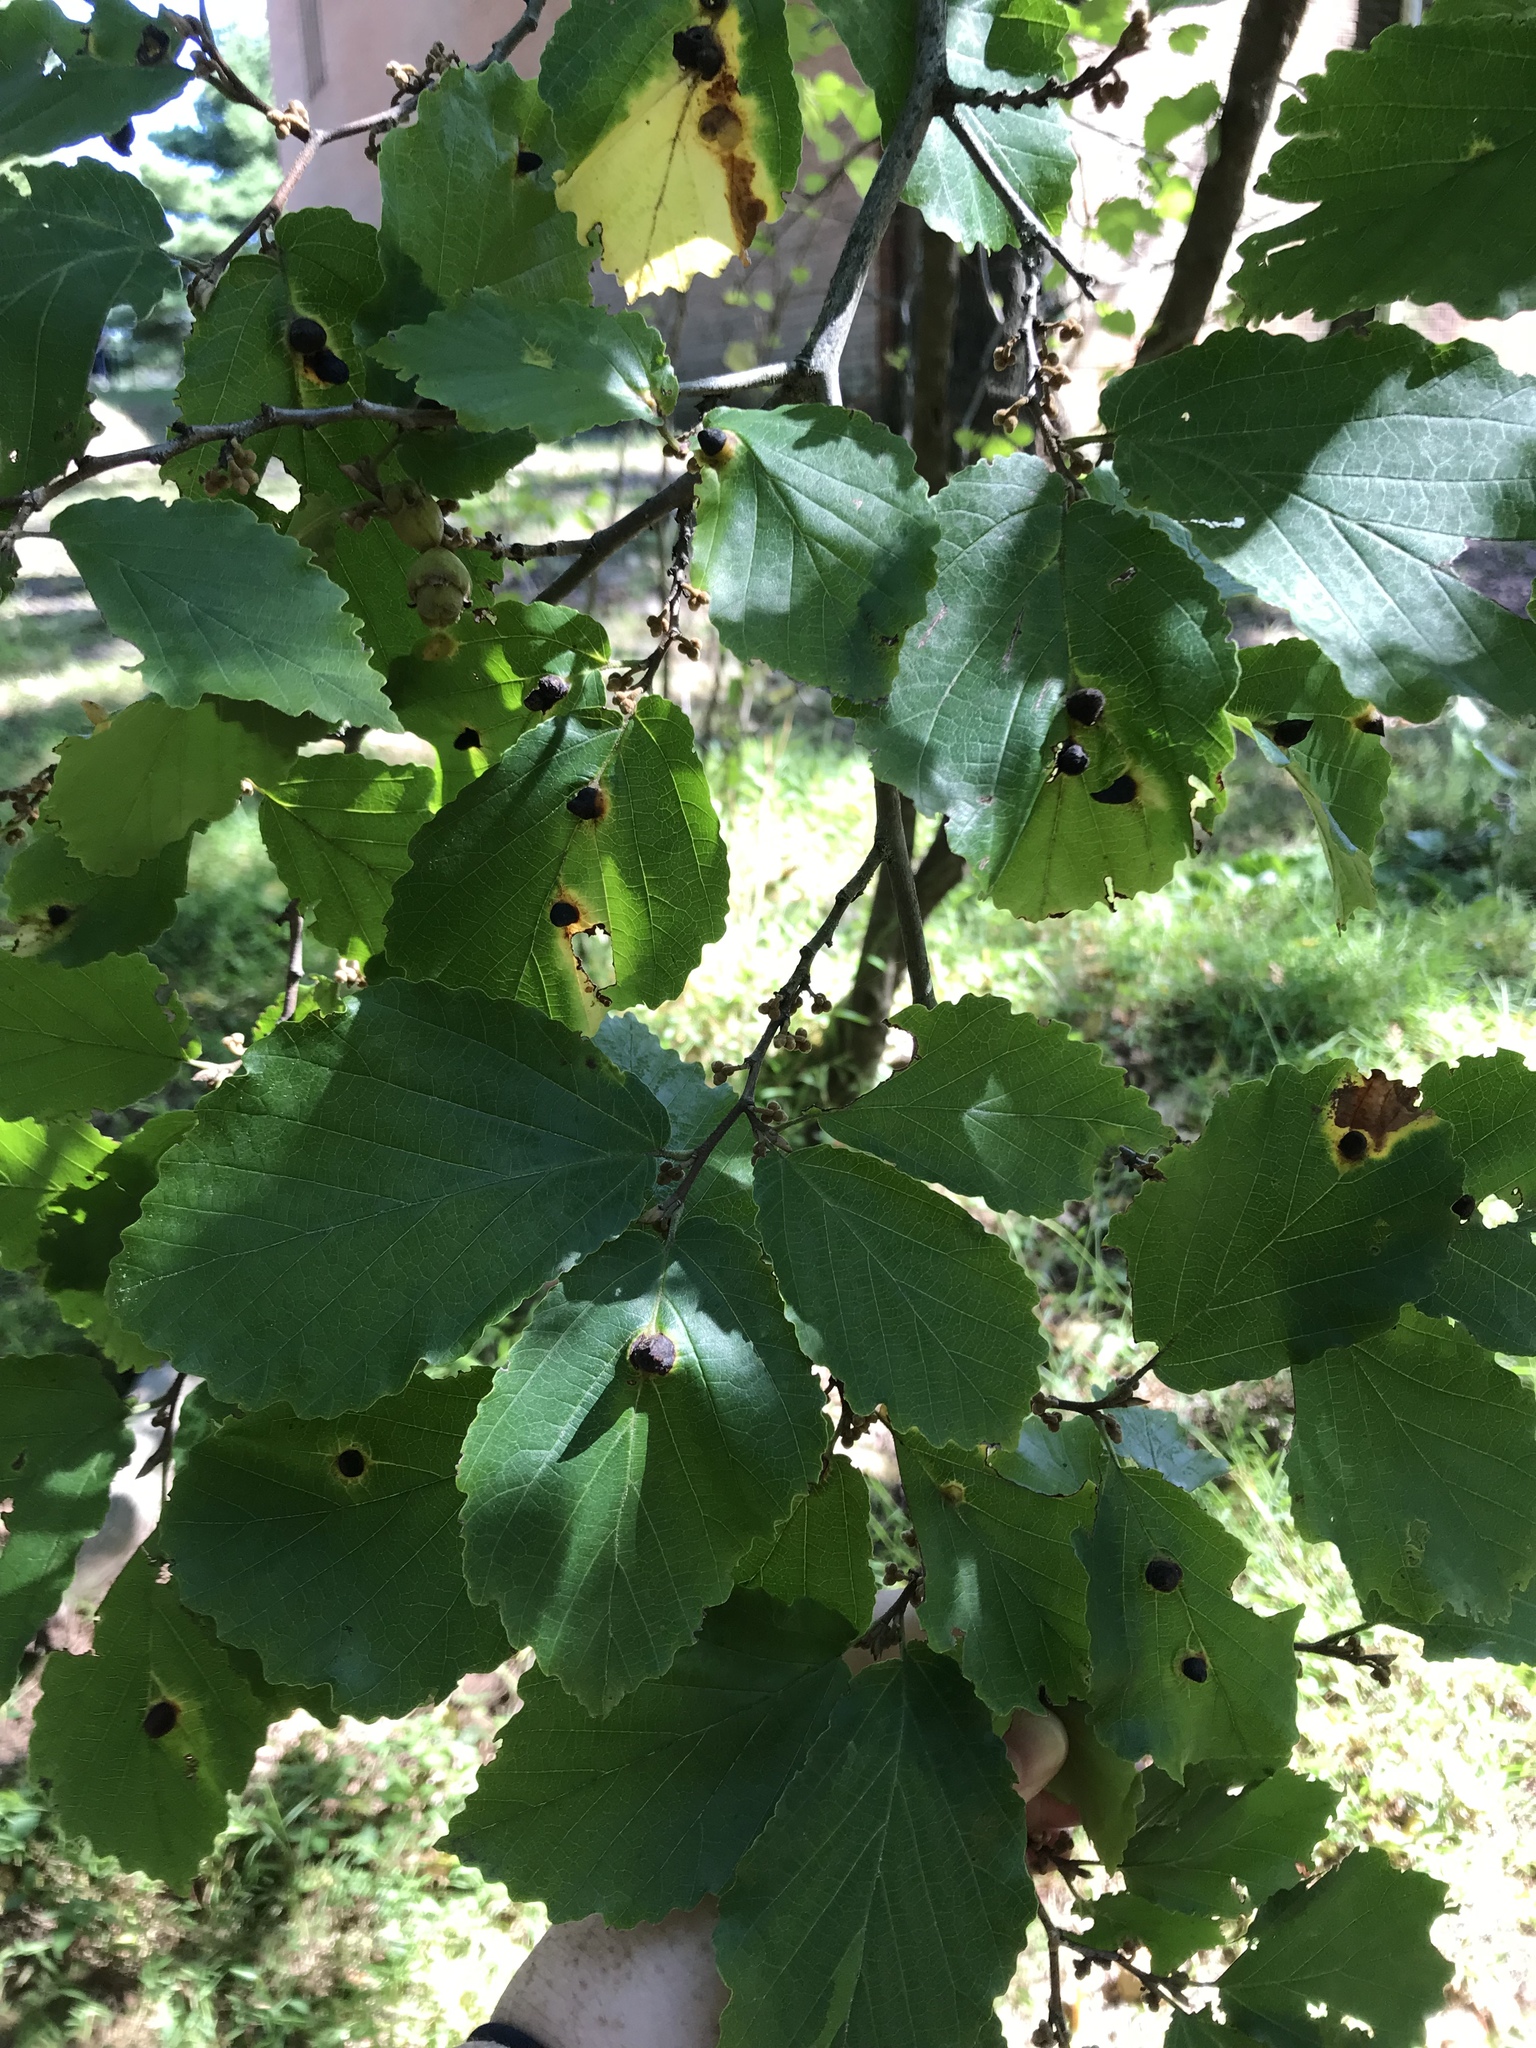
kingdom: Animalia
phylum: Arthropoda
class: Insecta
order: Hemiptera
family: Aphididae
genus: Hormaphis
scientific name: Hormaphis hamamelidis
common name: Witch-hazel cone gall aphid
